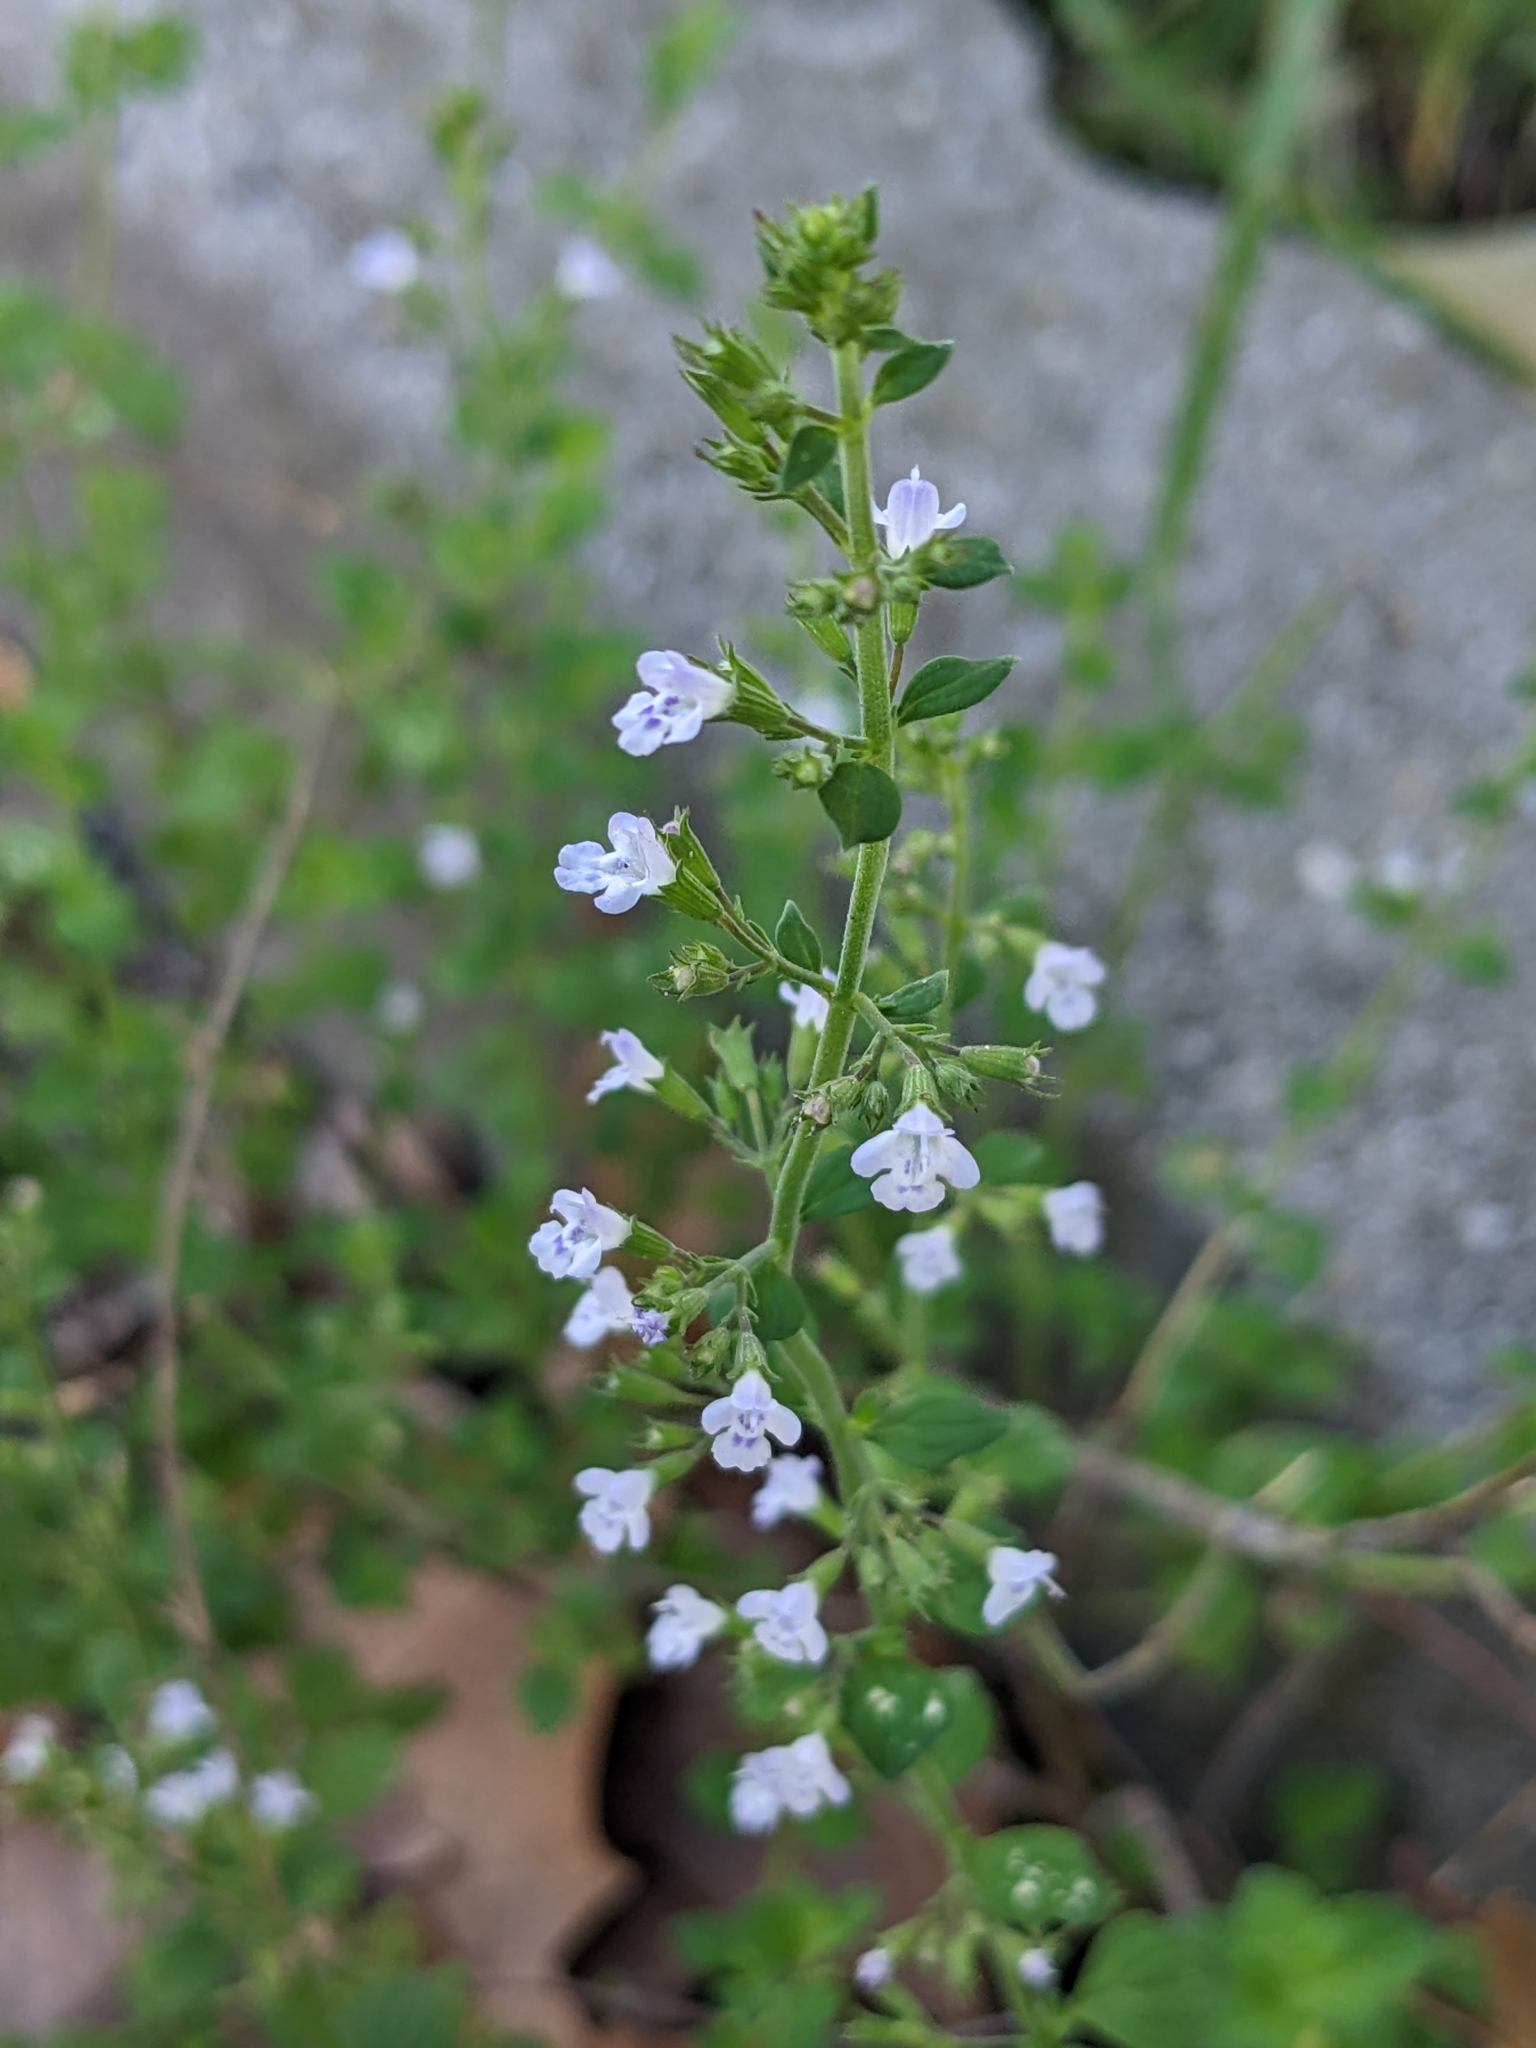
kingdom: Plantae
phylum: Tracheophyta
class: Magnoliopsida
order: Lamiales
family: Lamiaceae
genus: Clinopodium
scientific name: Clinopodium nepeta
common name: Lesser calamint
